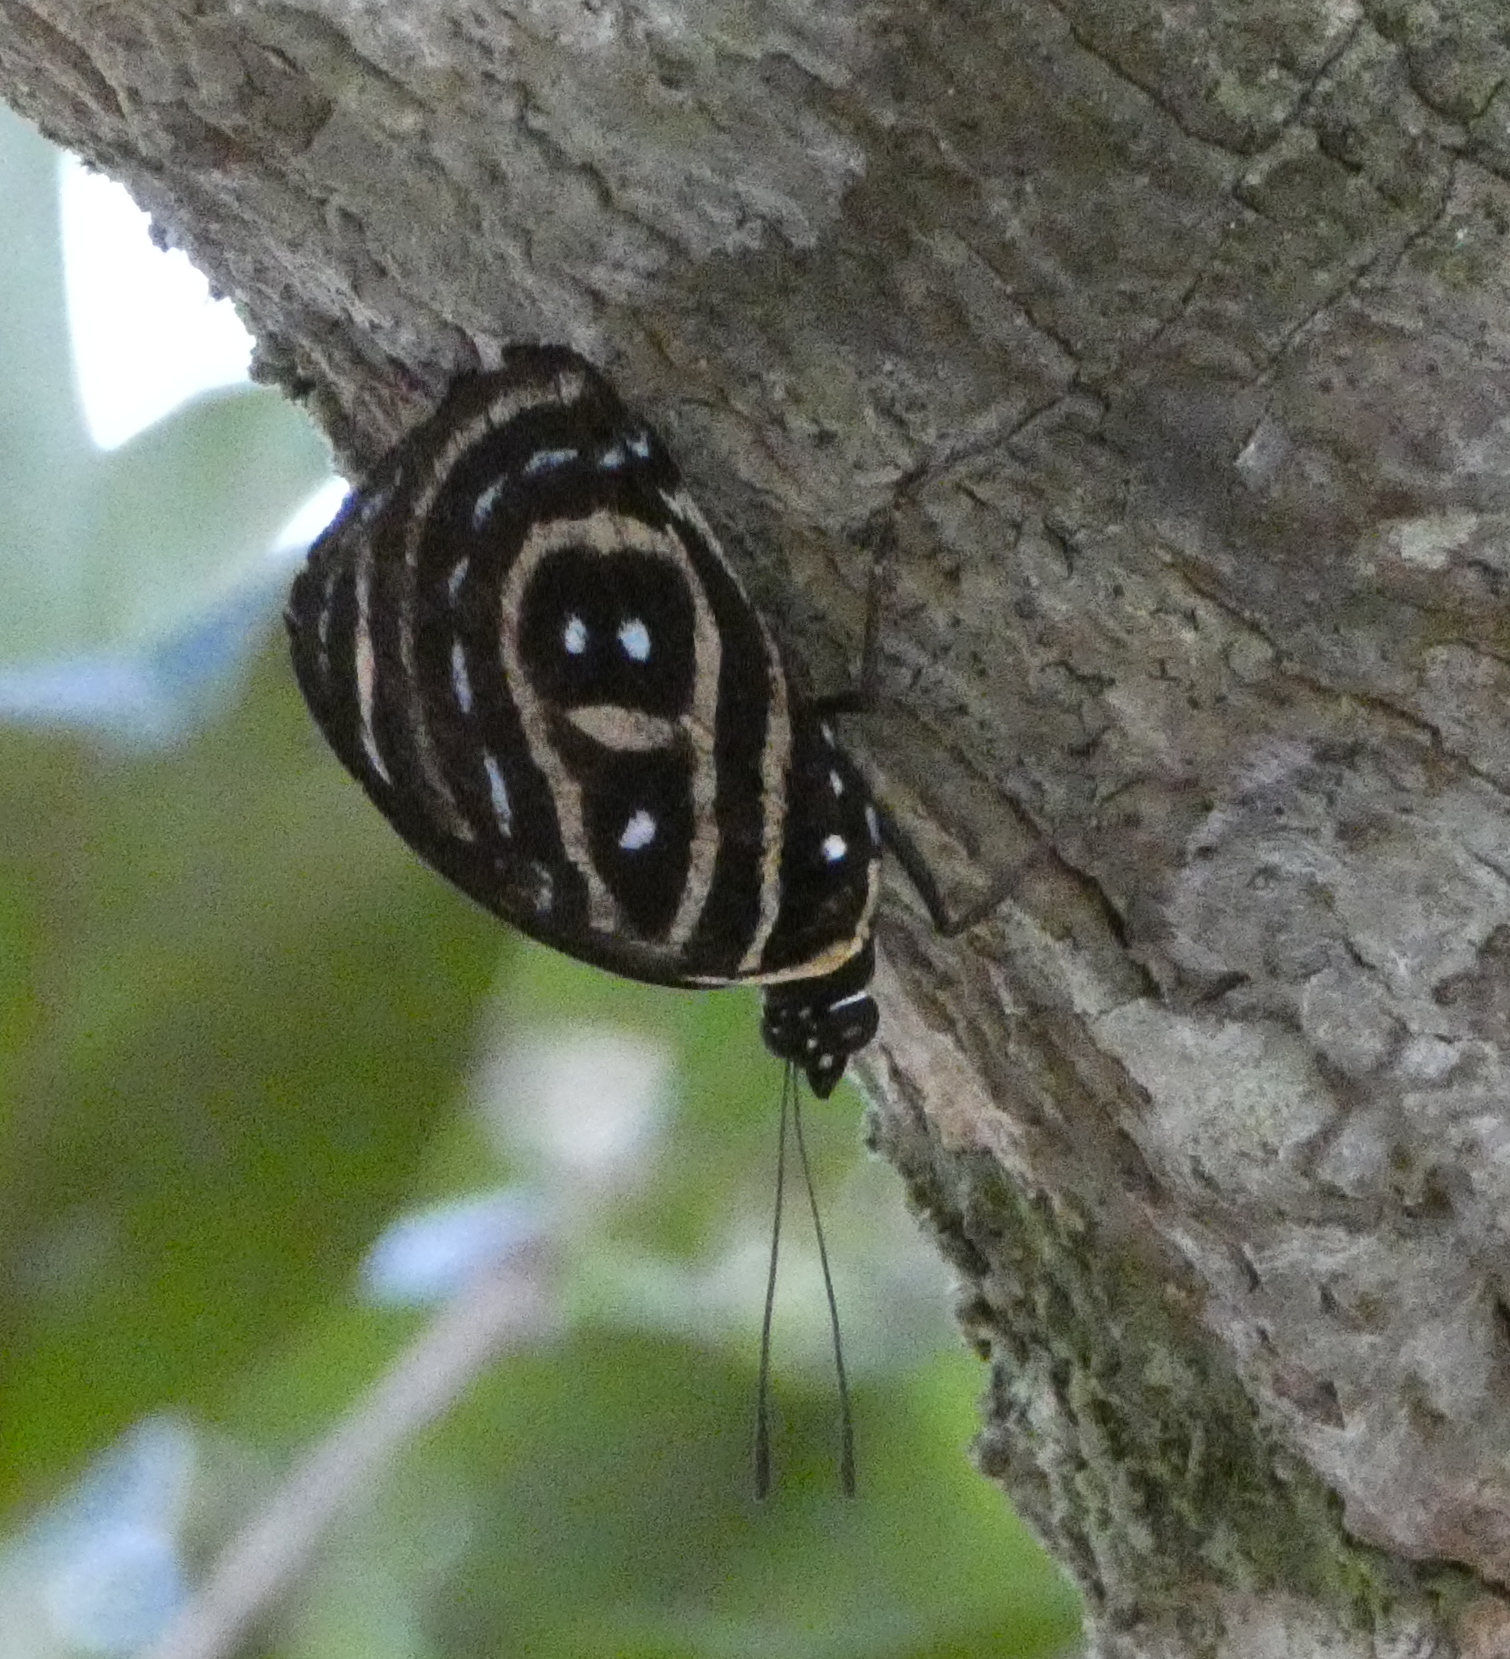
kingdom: Animalia
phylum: Arthropoda
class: Insecta
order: Lepidoptera
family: Nymphalidae
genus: Catagramma
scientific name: Catagramma astarte
